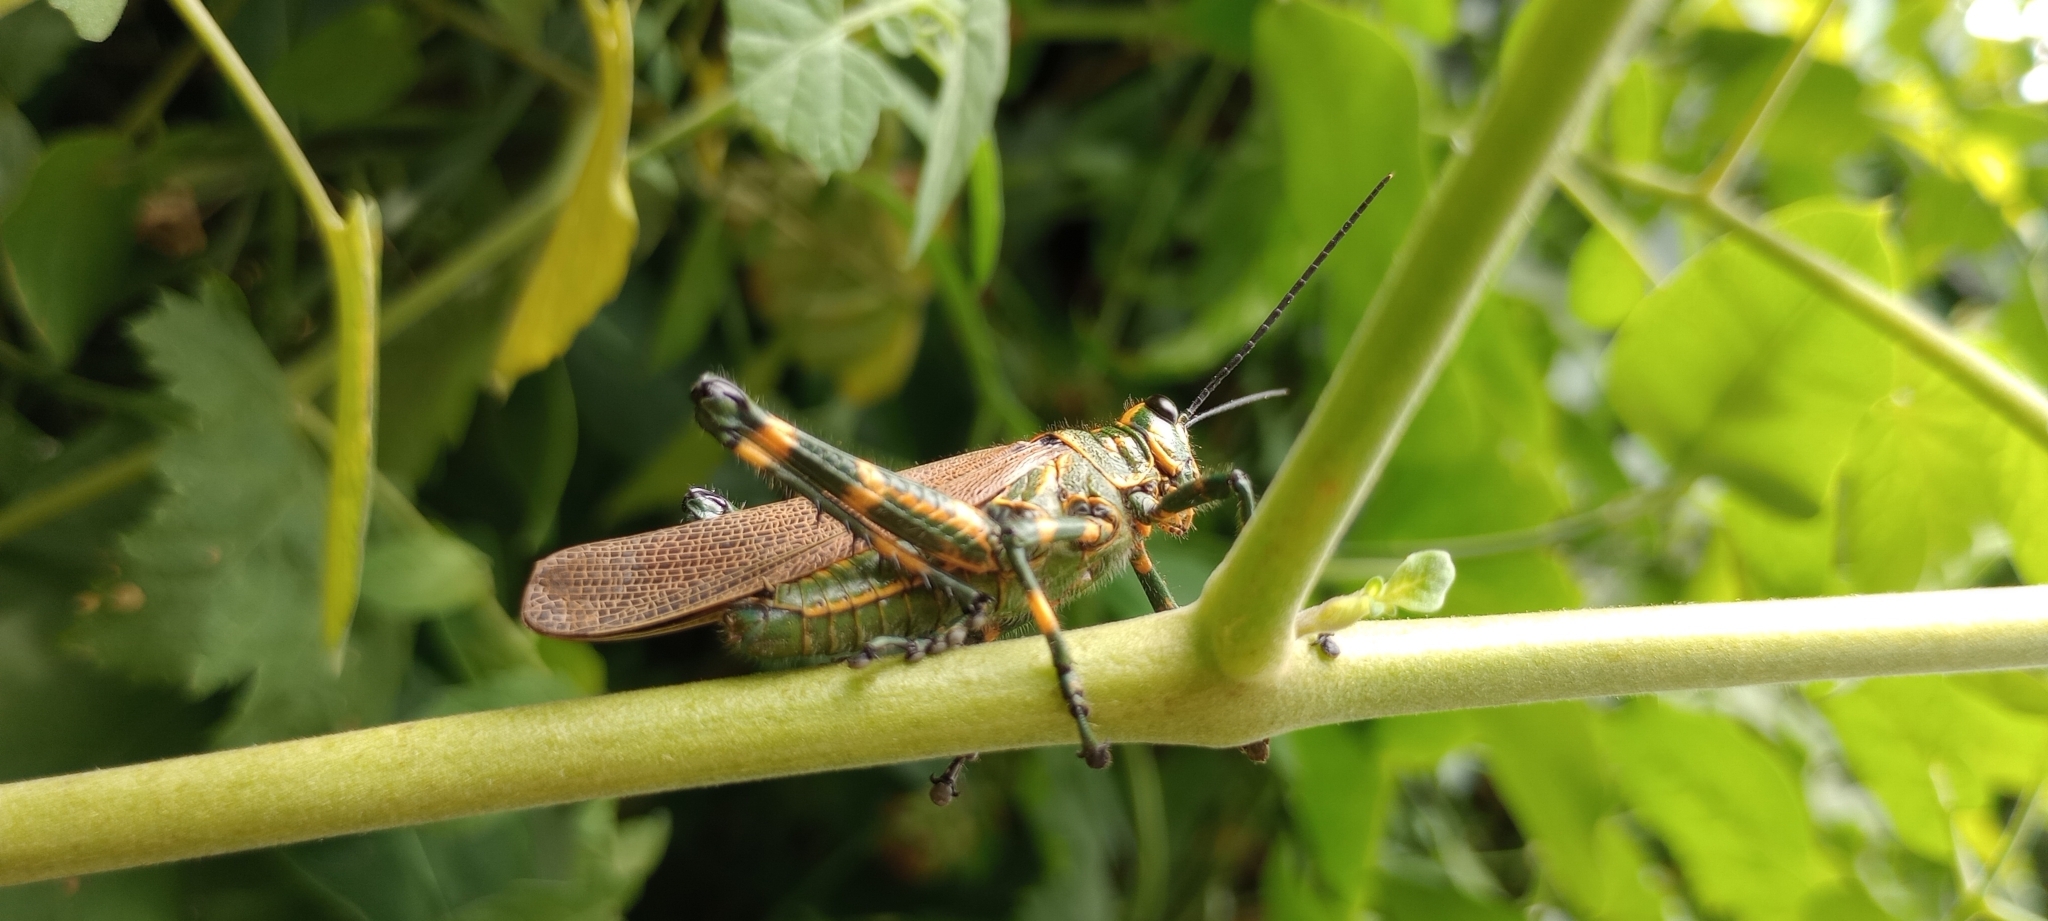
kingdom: Animalia
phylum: Arthropoda
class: Insecta
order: Orthoptera
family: Romaleidae
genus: Chromacris
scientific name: Chromacris speciosa
